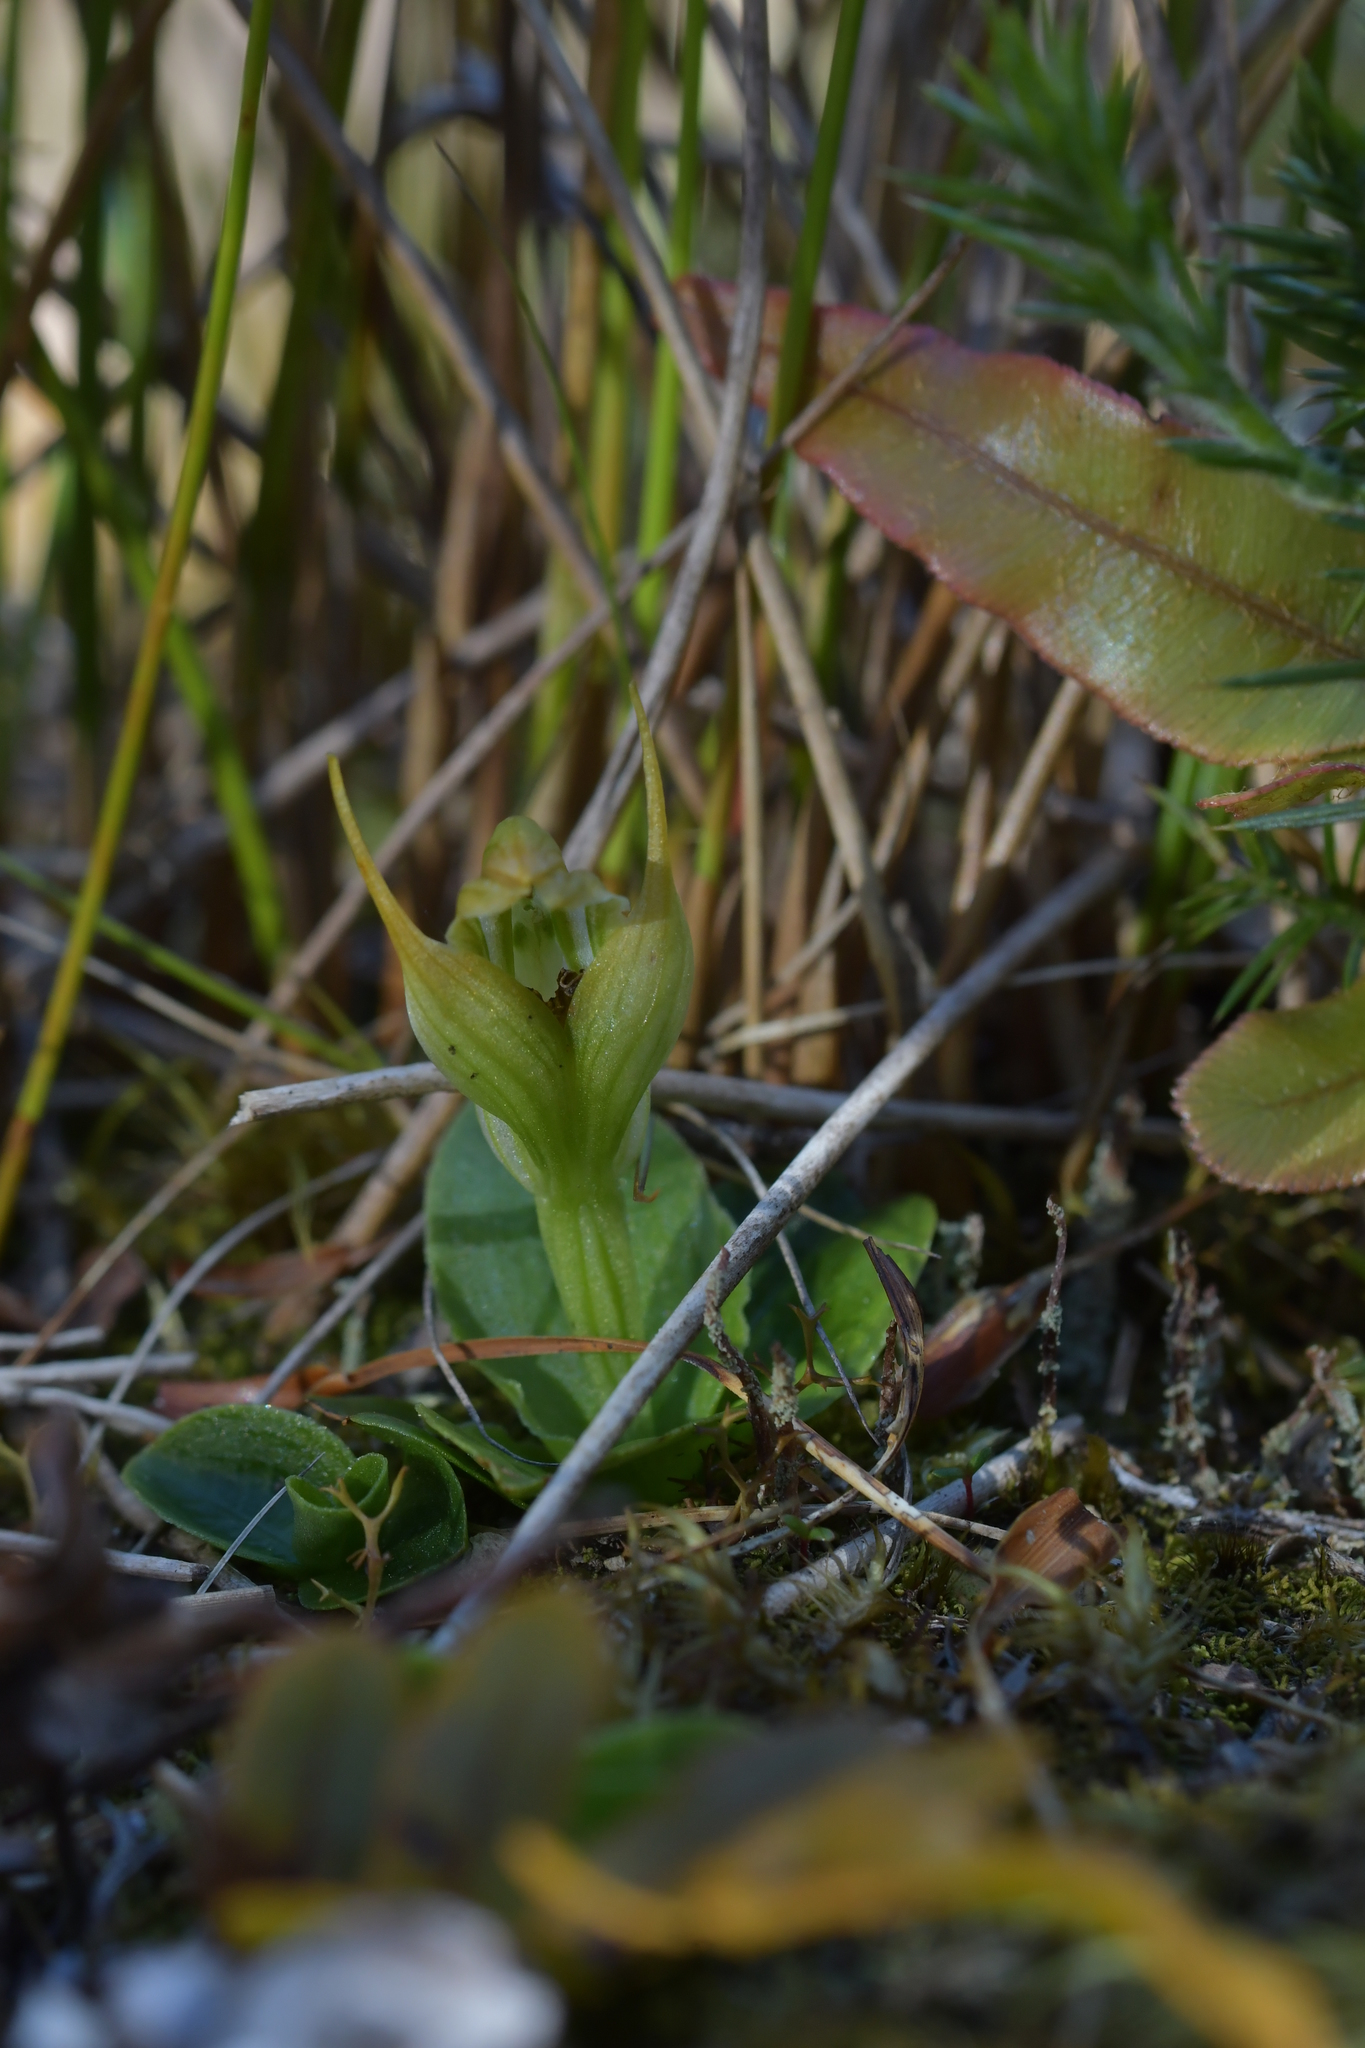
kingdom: Plantae
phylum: Tracheophyta
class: Liliopsida
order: Asparagales
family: Orchidaceae
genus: Pterostylis
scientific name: Pterostylis venosa
